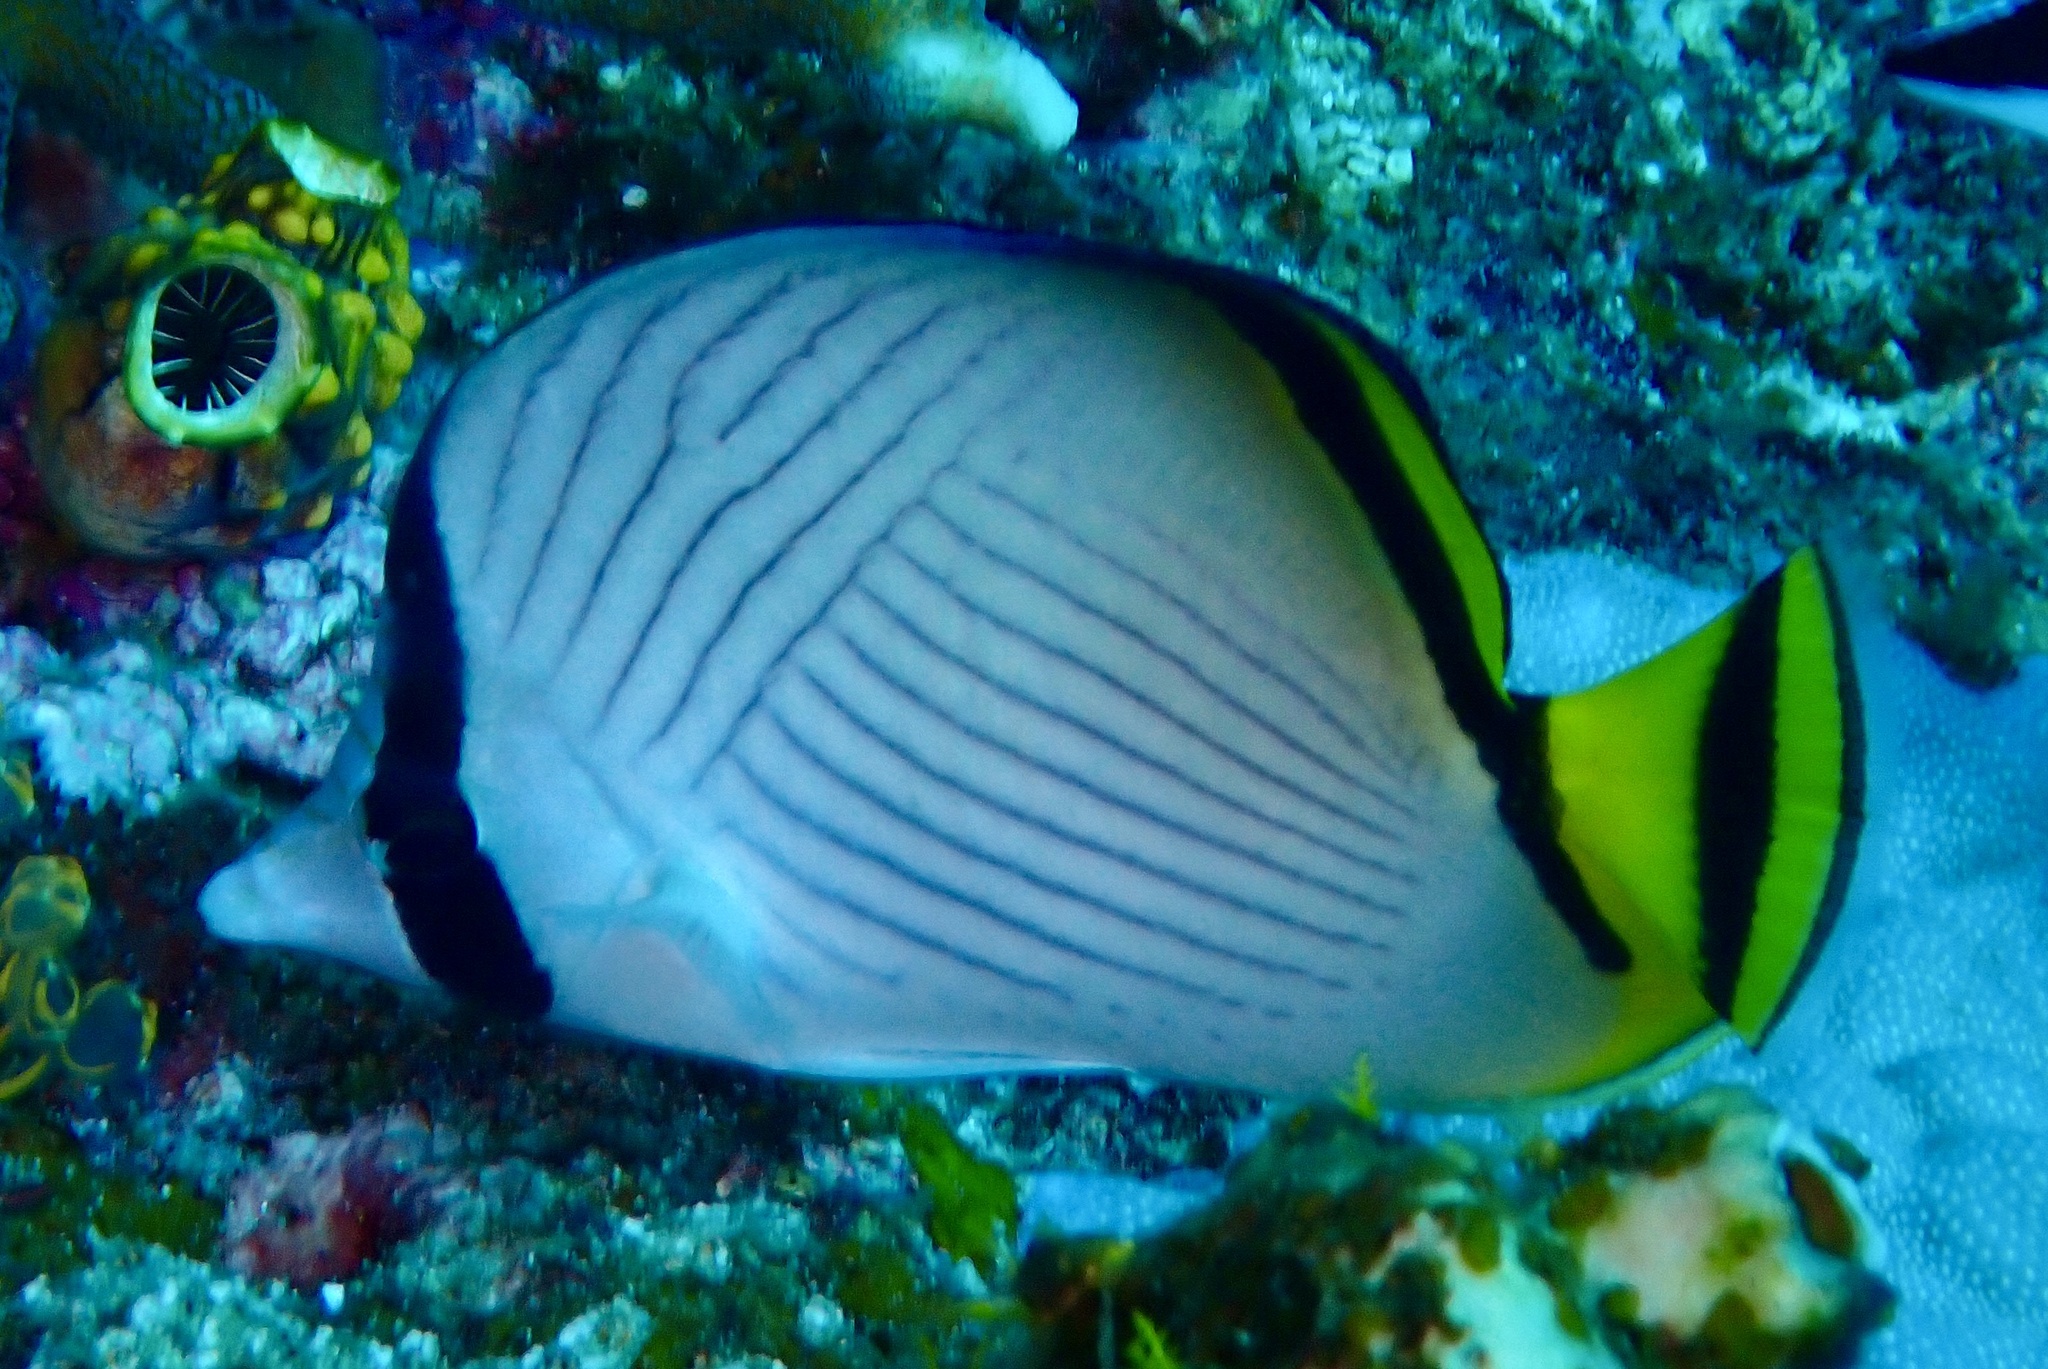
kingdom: Animalia
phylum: Chordata
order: Perciformes
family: Chaetodontidae
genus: Chaetodon
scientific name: Chaetodon vagabundus
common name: Vagabond butterflyfish
